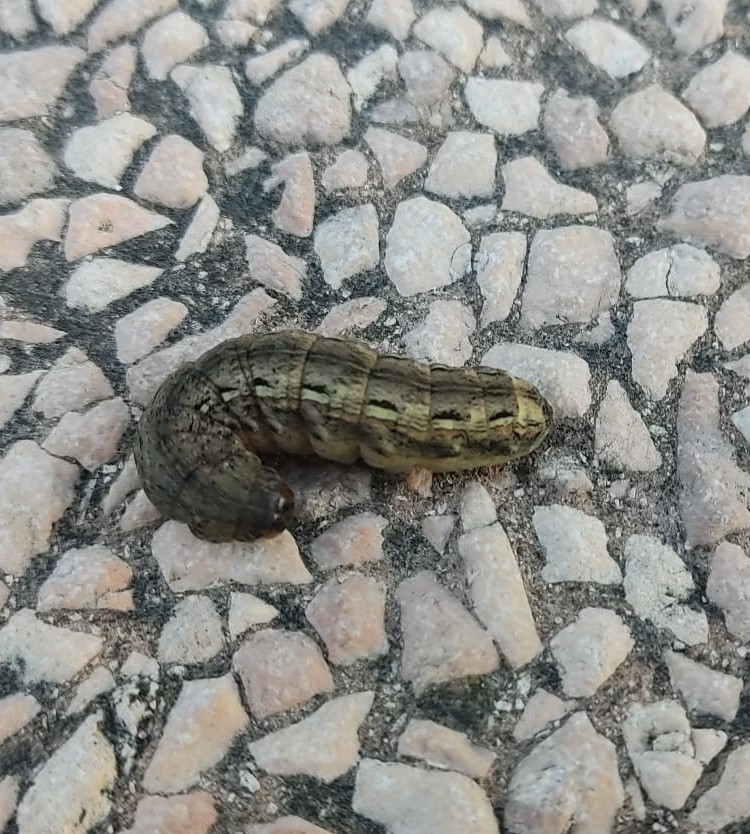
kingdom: Animalia
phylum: Arthropoda
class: Insecta
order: Lepidoptera
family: Noctuidae
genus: Noctua
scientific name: Noctua pronuba
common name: Large yellow underwing
